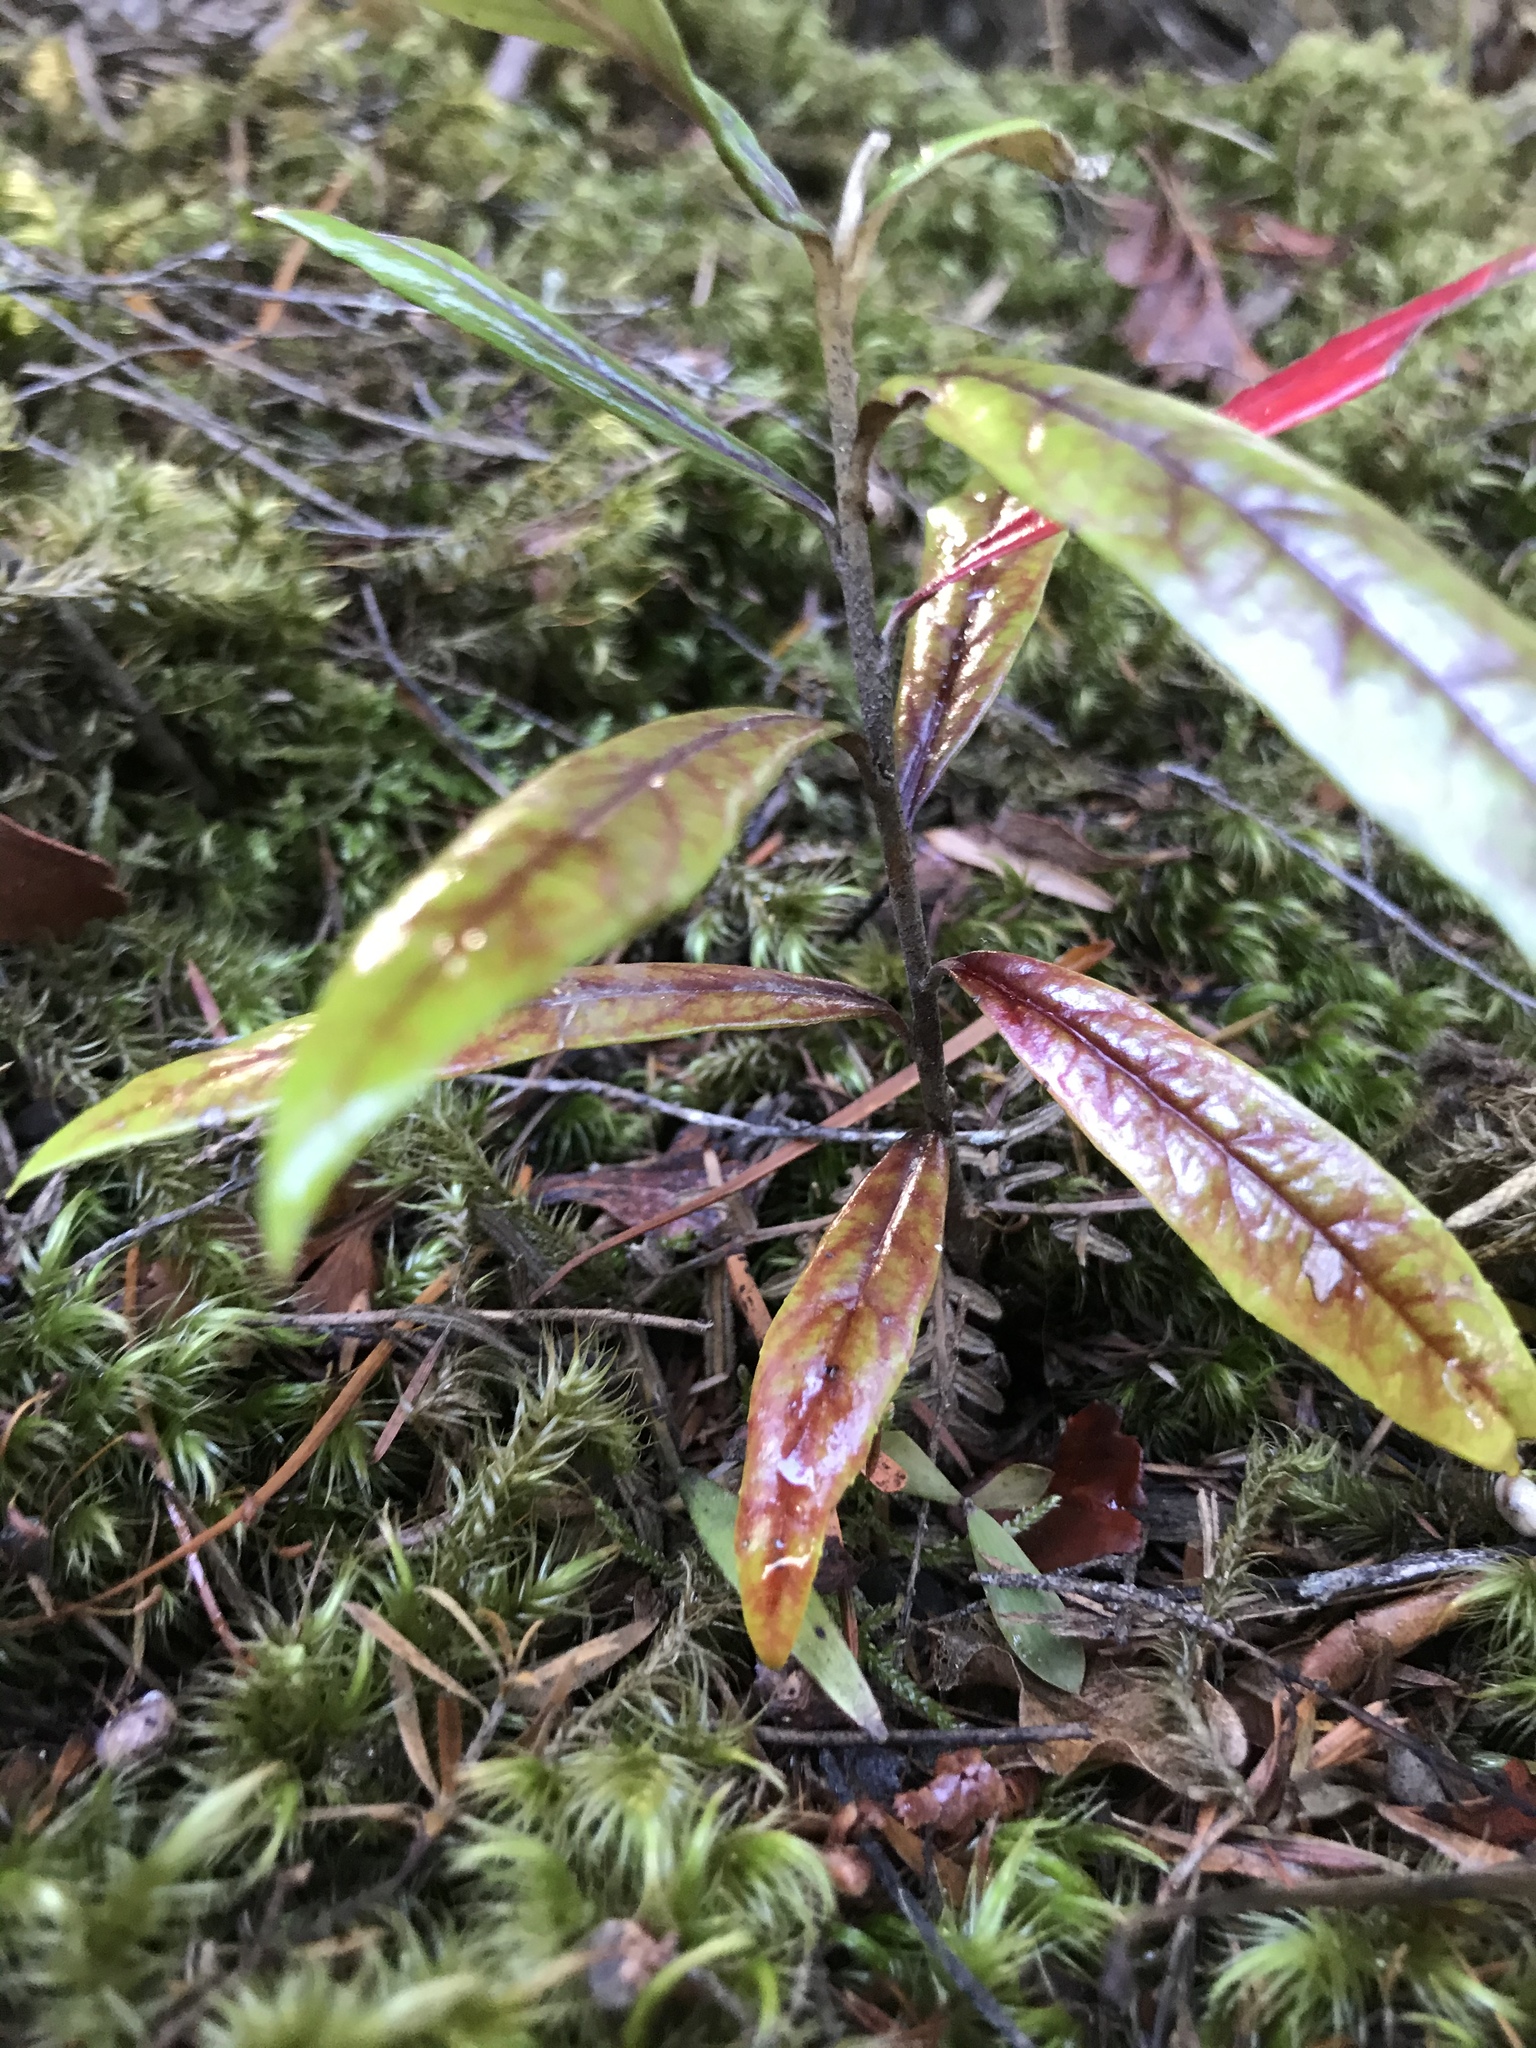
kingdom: Plantae
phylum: Tracheophyta
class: Magnoliopsida
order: Asterales
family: Argophyllaceae
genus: Corokia
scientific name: Corokia buddleioides
